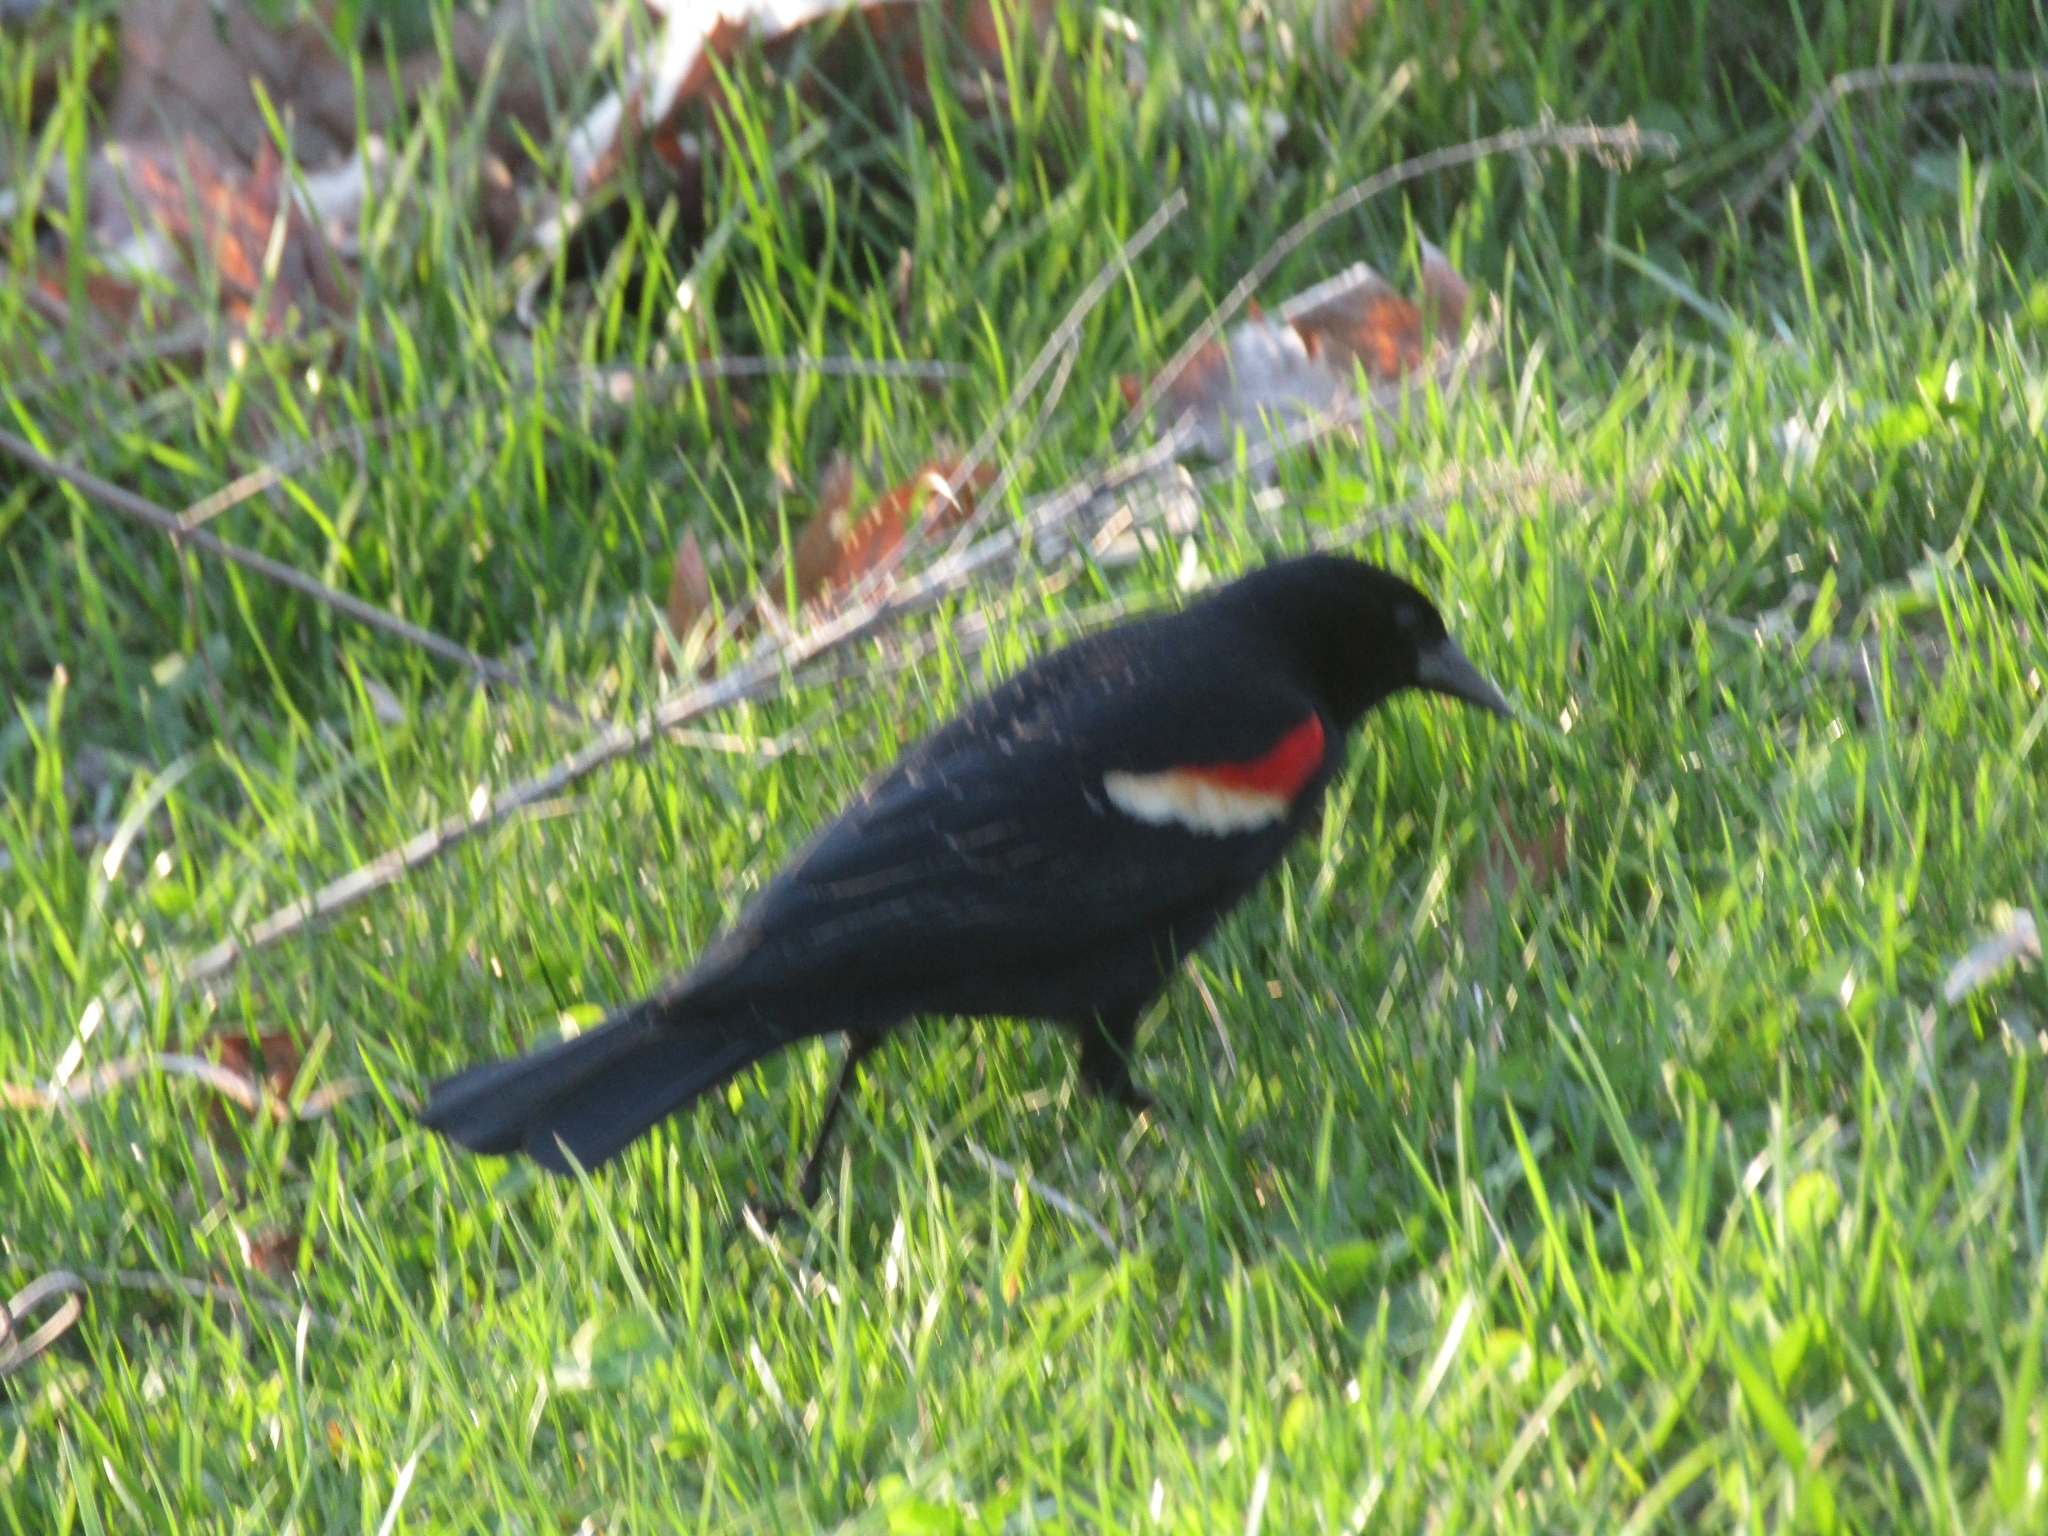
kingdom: Animalia
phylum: Chordata
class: Aves
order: Passeriformes
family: Icteridae
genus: Agelaius
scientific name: Agelaius phoeniceus
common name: Red-winged blackbird
